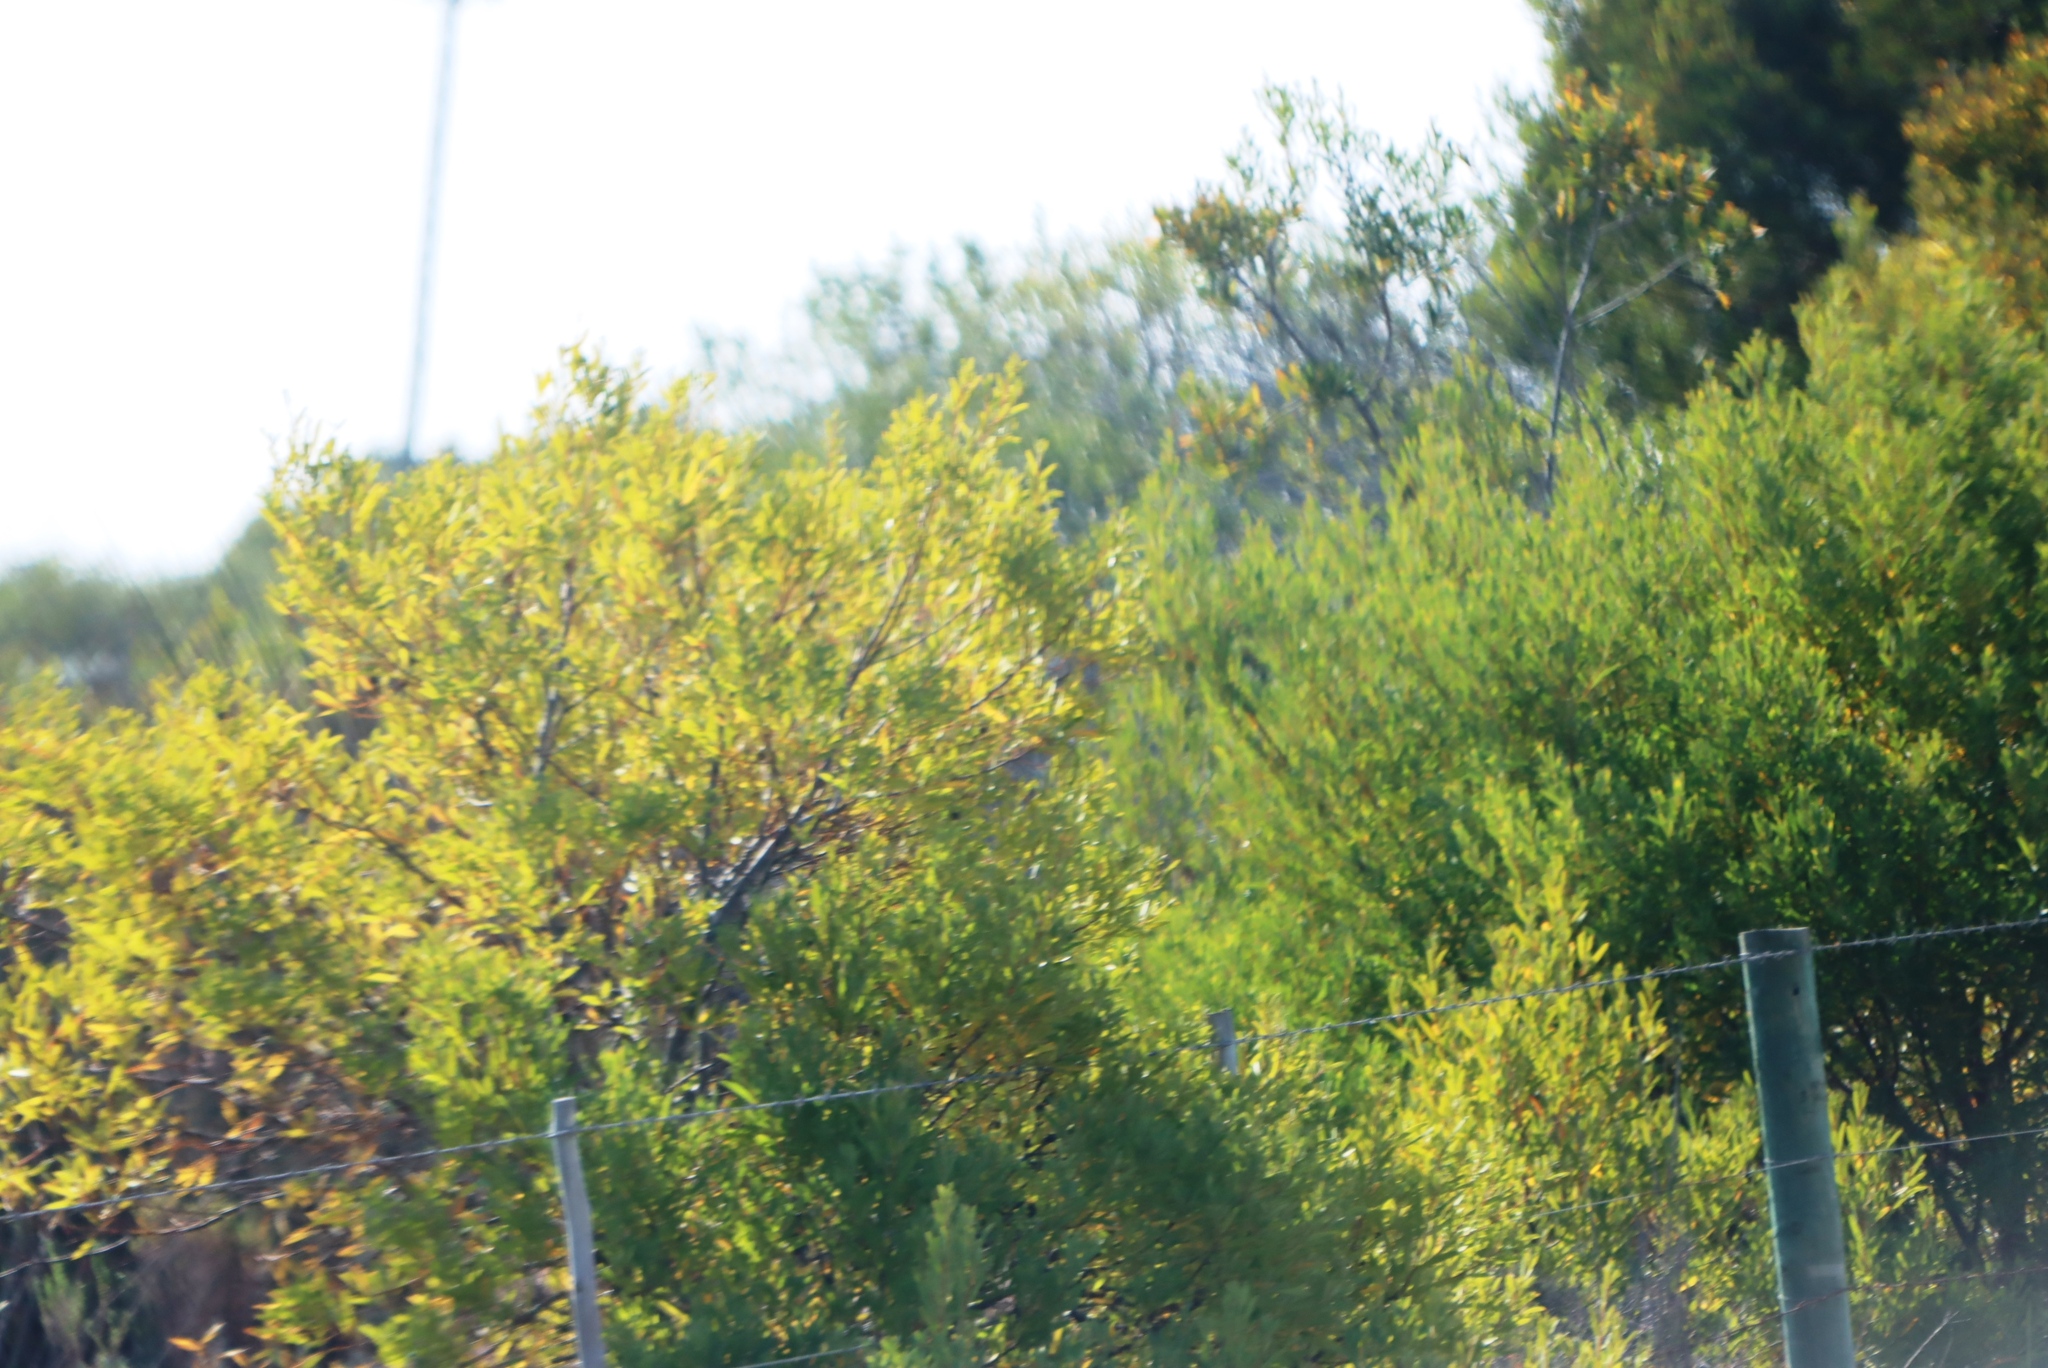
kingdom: Plantae
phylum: Tracheophyta
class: Magnoliopsida
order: Fabales
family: Fabaceae
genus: Acacia
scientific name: Acacia cyclops
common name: Coastal wattle
